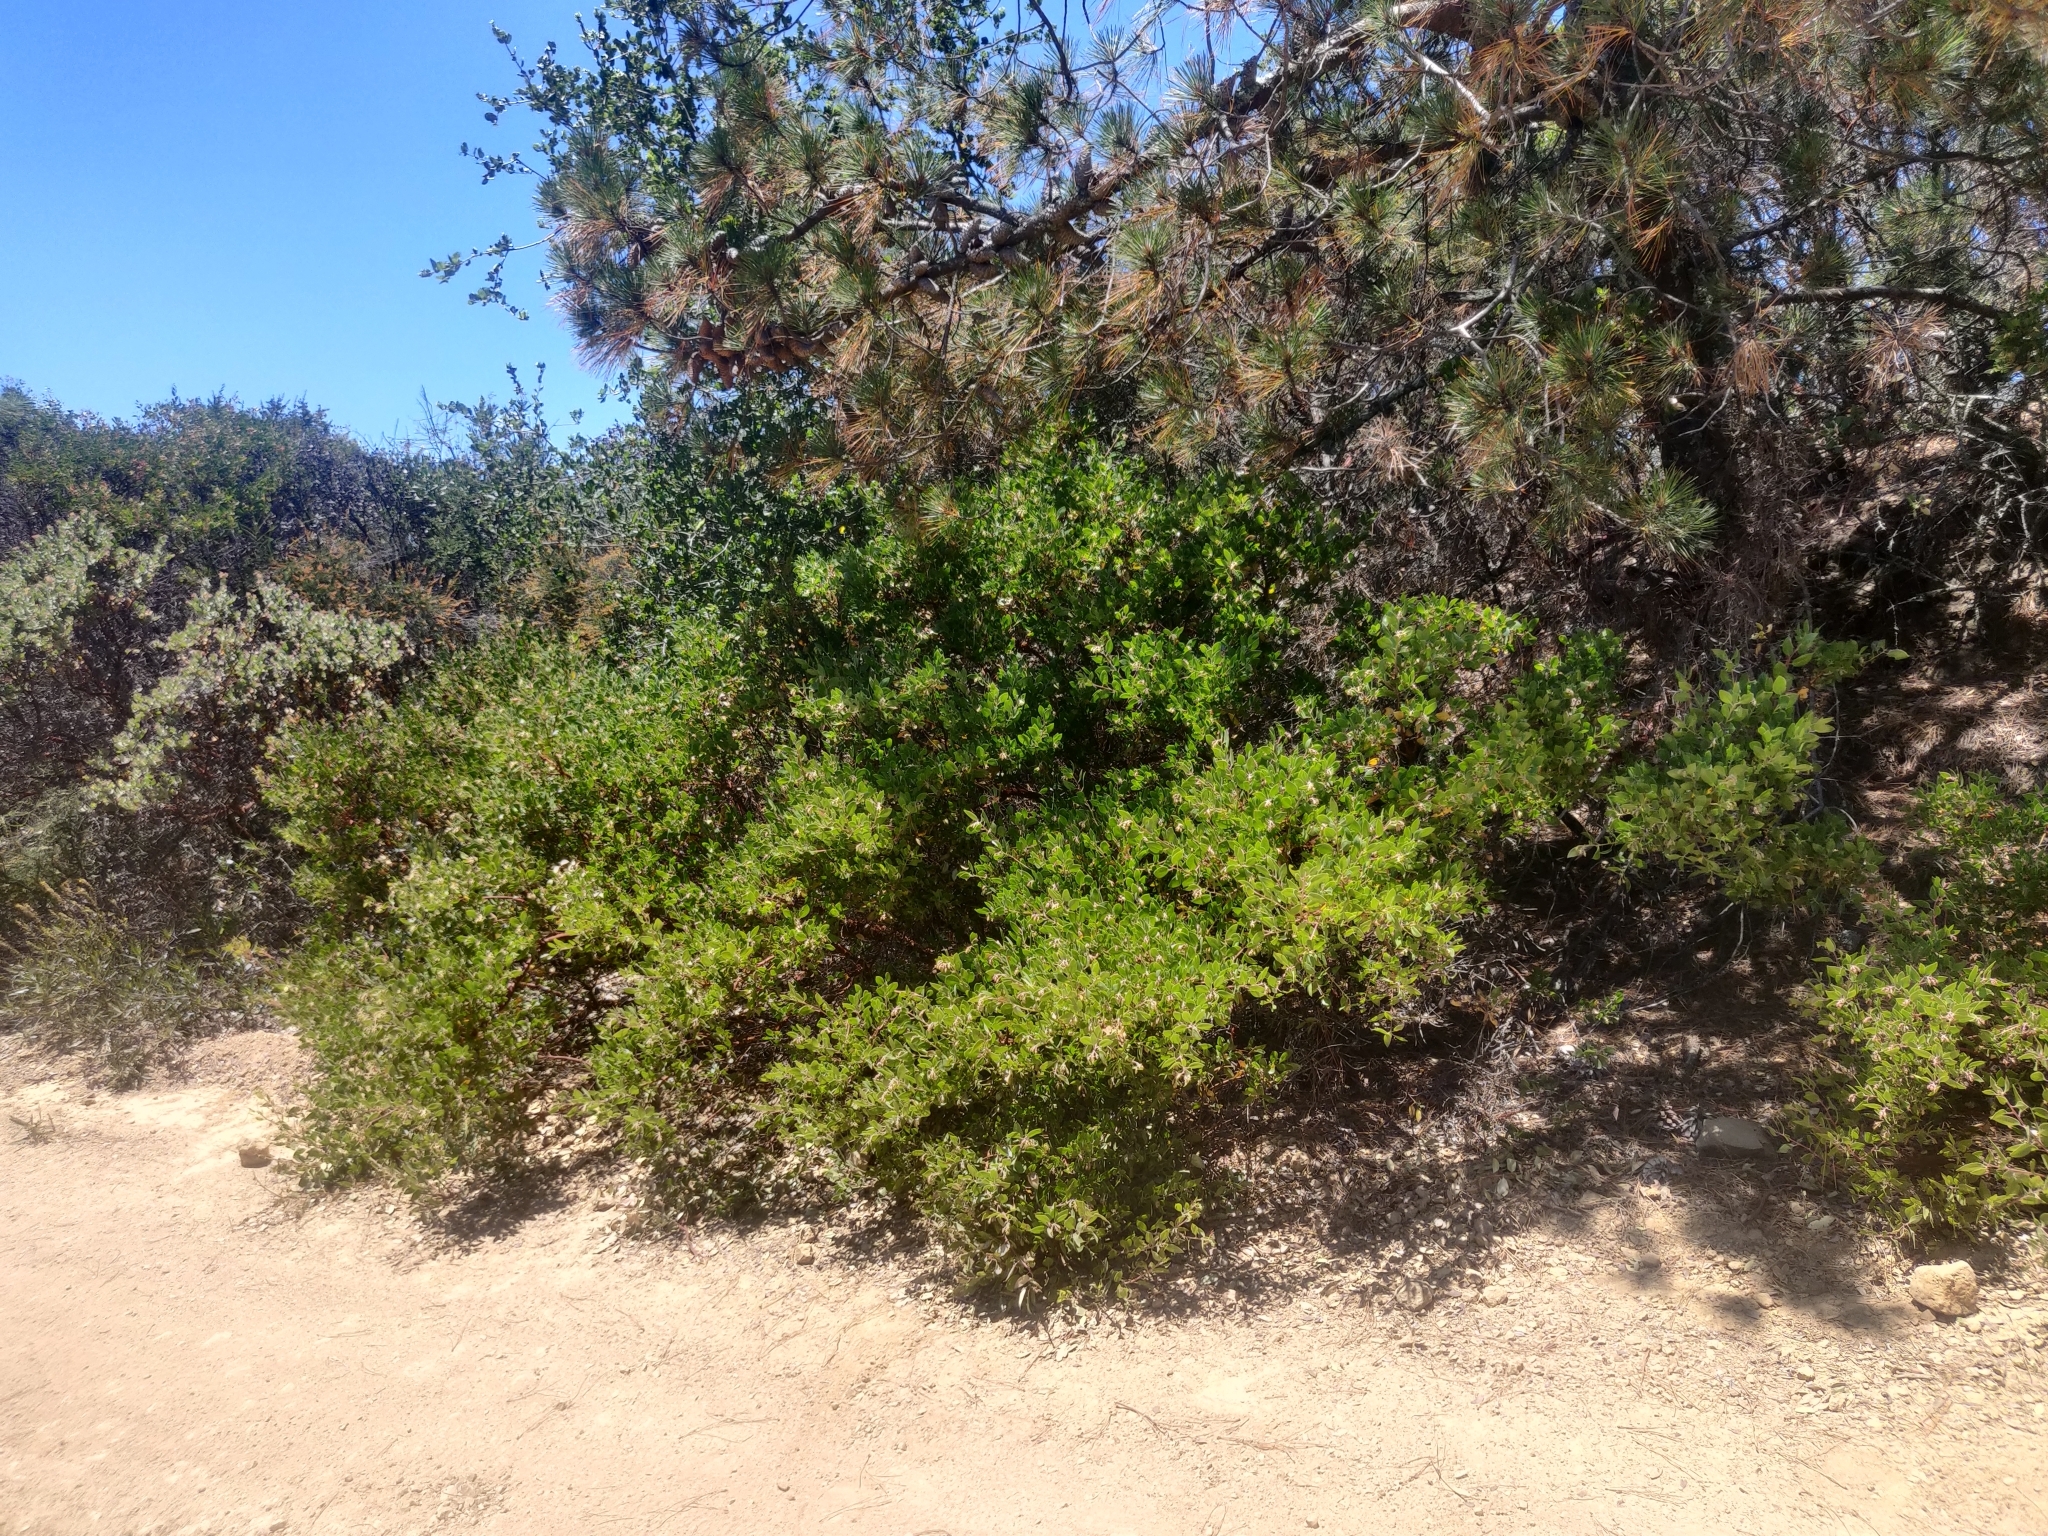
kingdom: Plantae
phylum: Tracheophyta
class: Magnoliopsida
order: Ericales
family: Ericaceae
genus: Arctostaphylos
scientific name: Arctostaphylos manzanita
